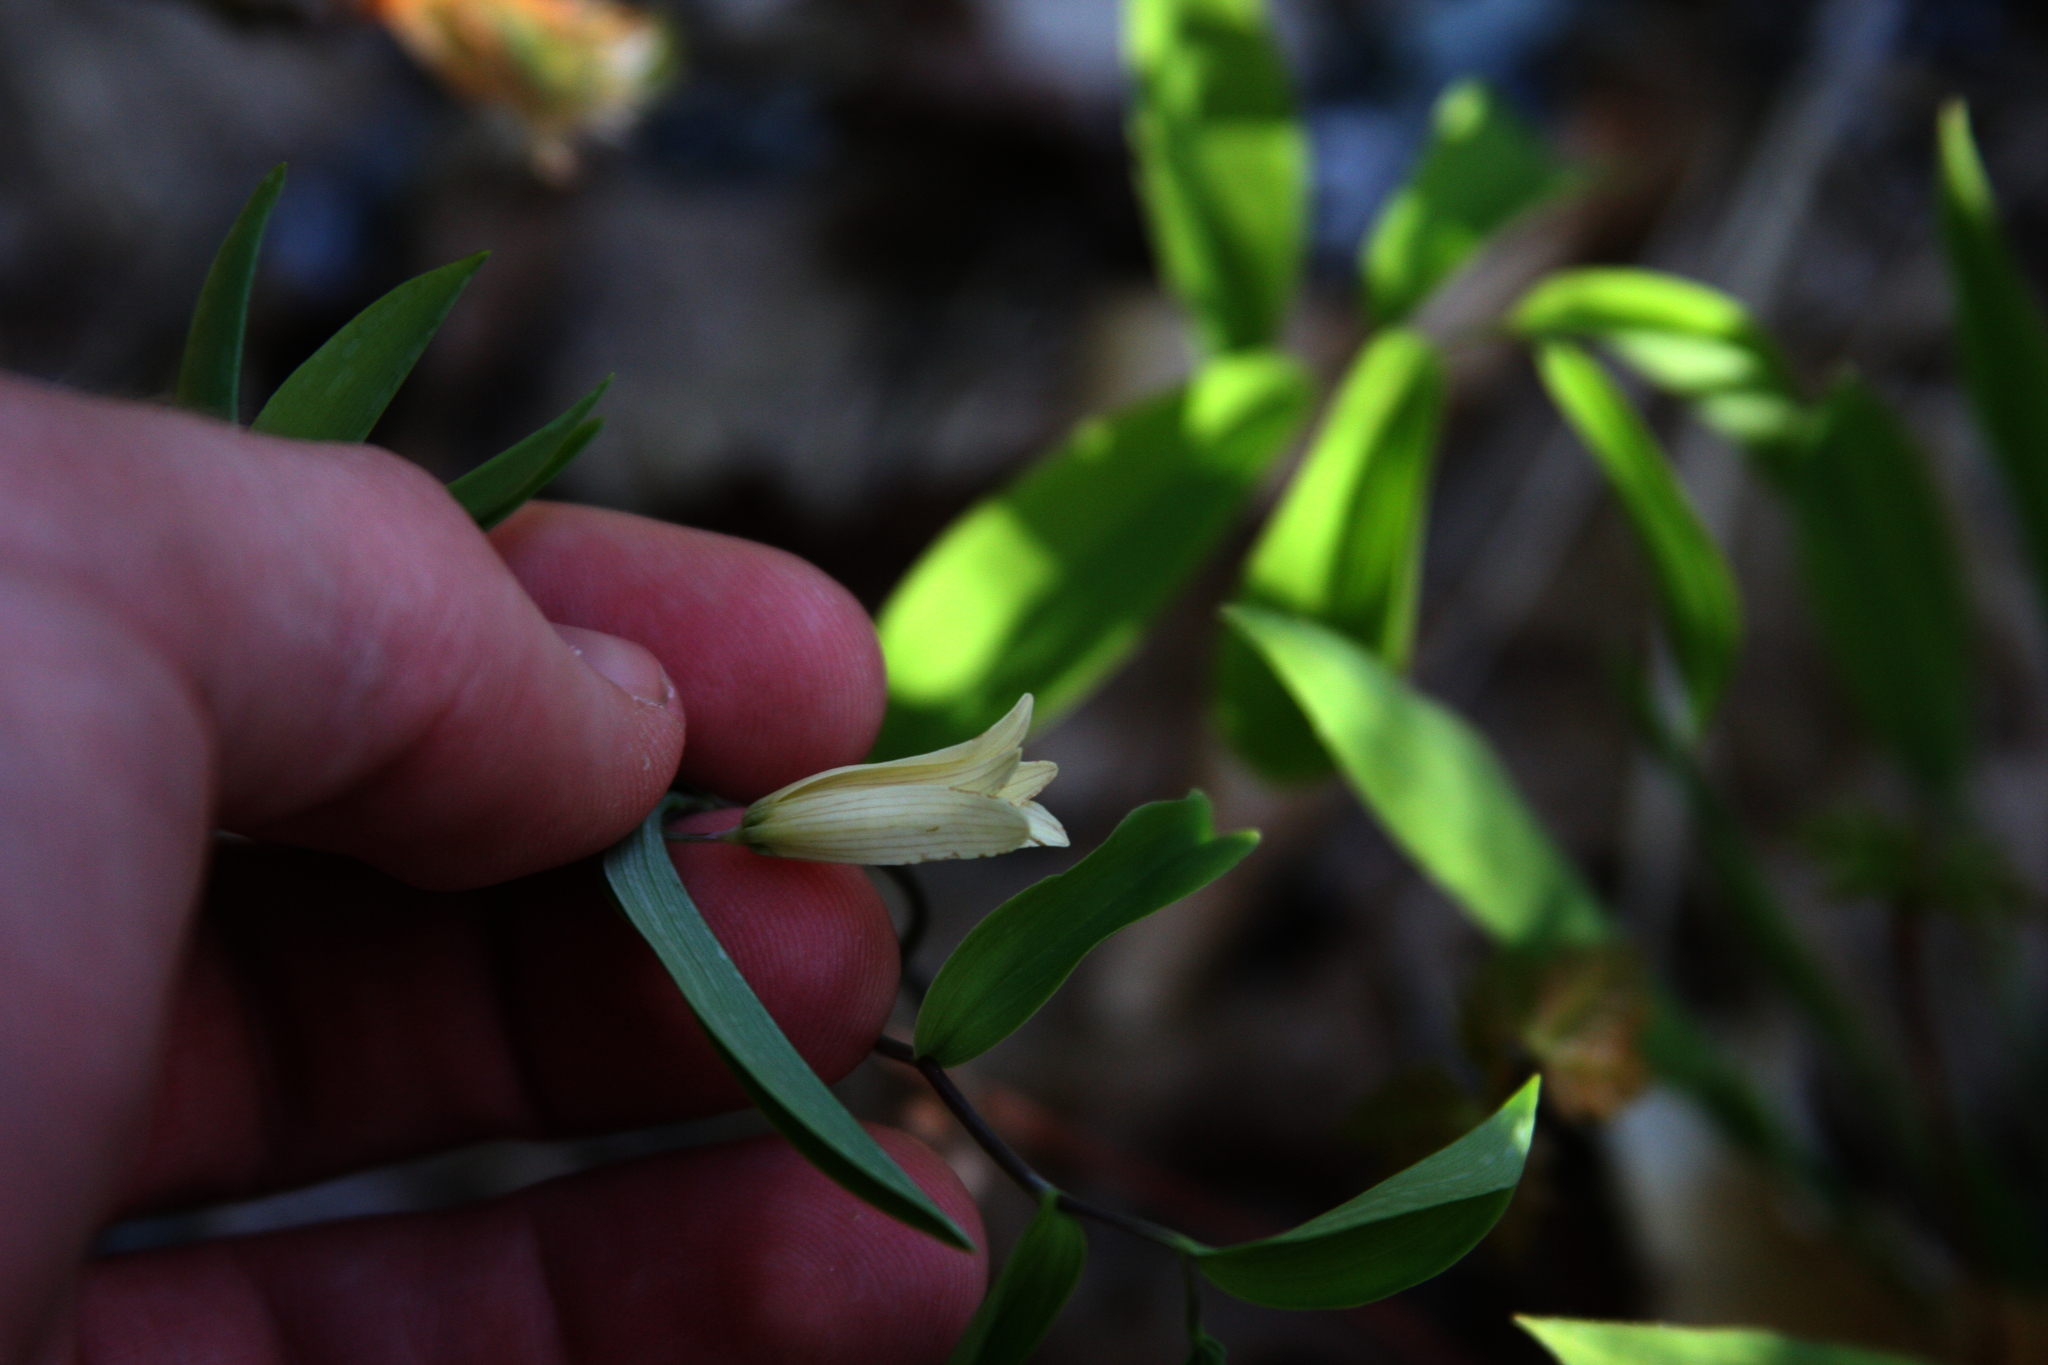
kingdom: Plantae
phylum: Tracheophyta
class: Liliopsida
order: Liliales
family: Colchicaceae
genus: Uvularia
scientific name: Uvularia sessilifolia
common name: Straw-lily
